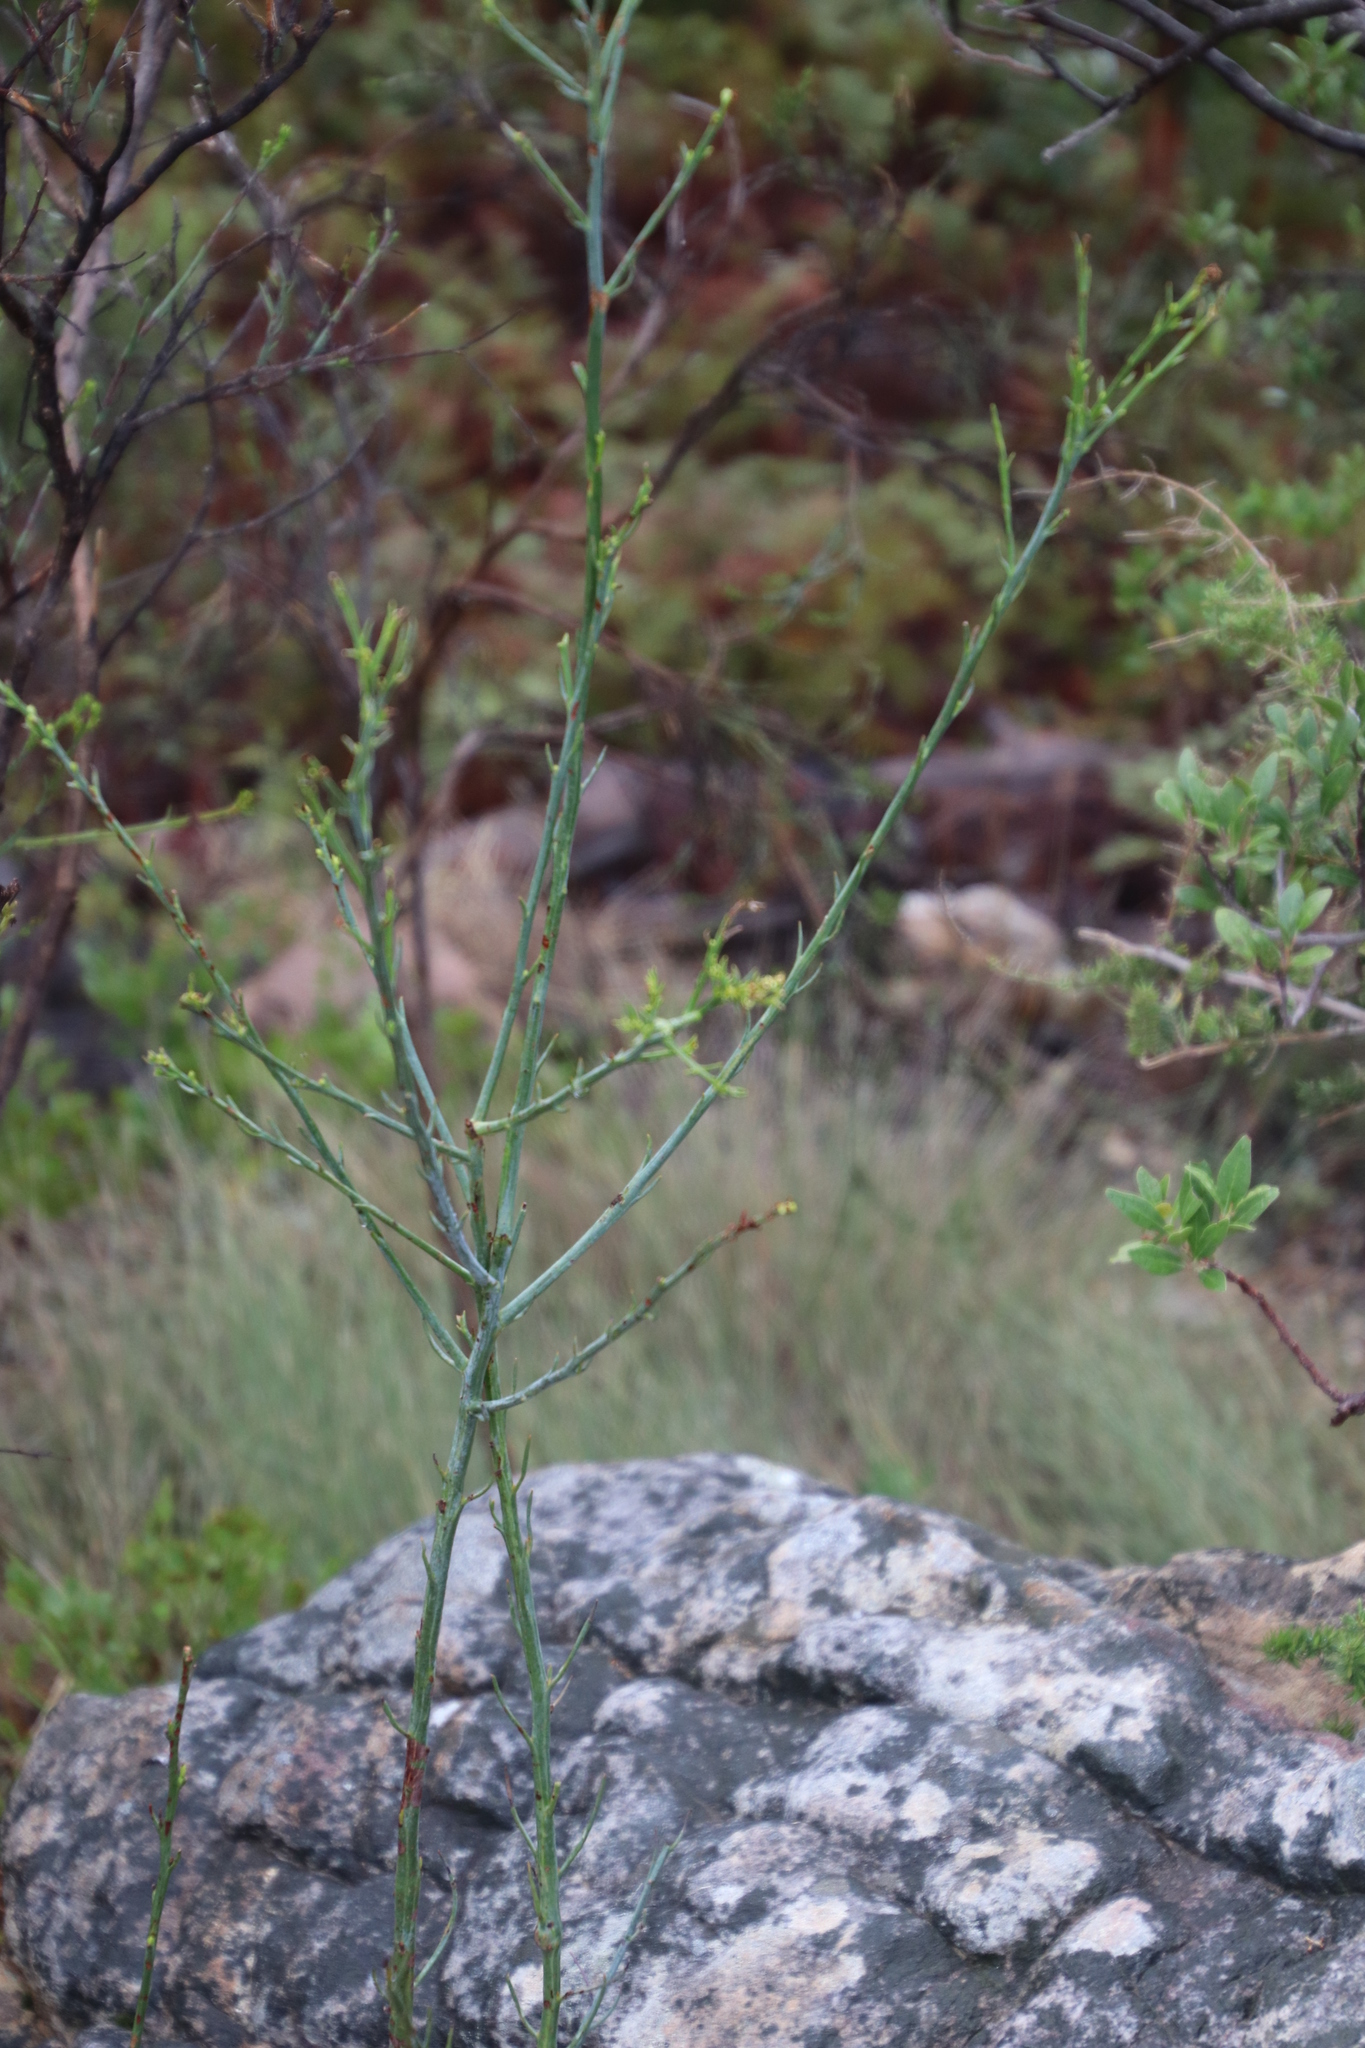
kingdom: Plantae
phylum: Tracheophyta
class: Magnoliopsida
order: Santalales
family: Thesiaceae
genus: Thesium
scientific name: Thesium strictum
